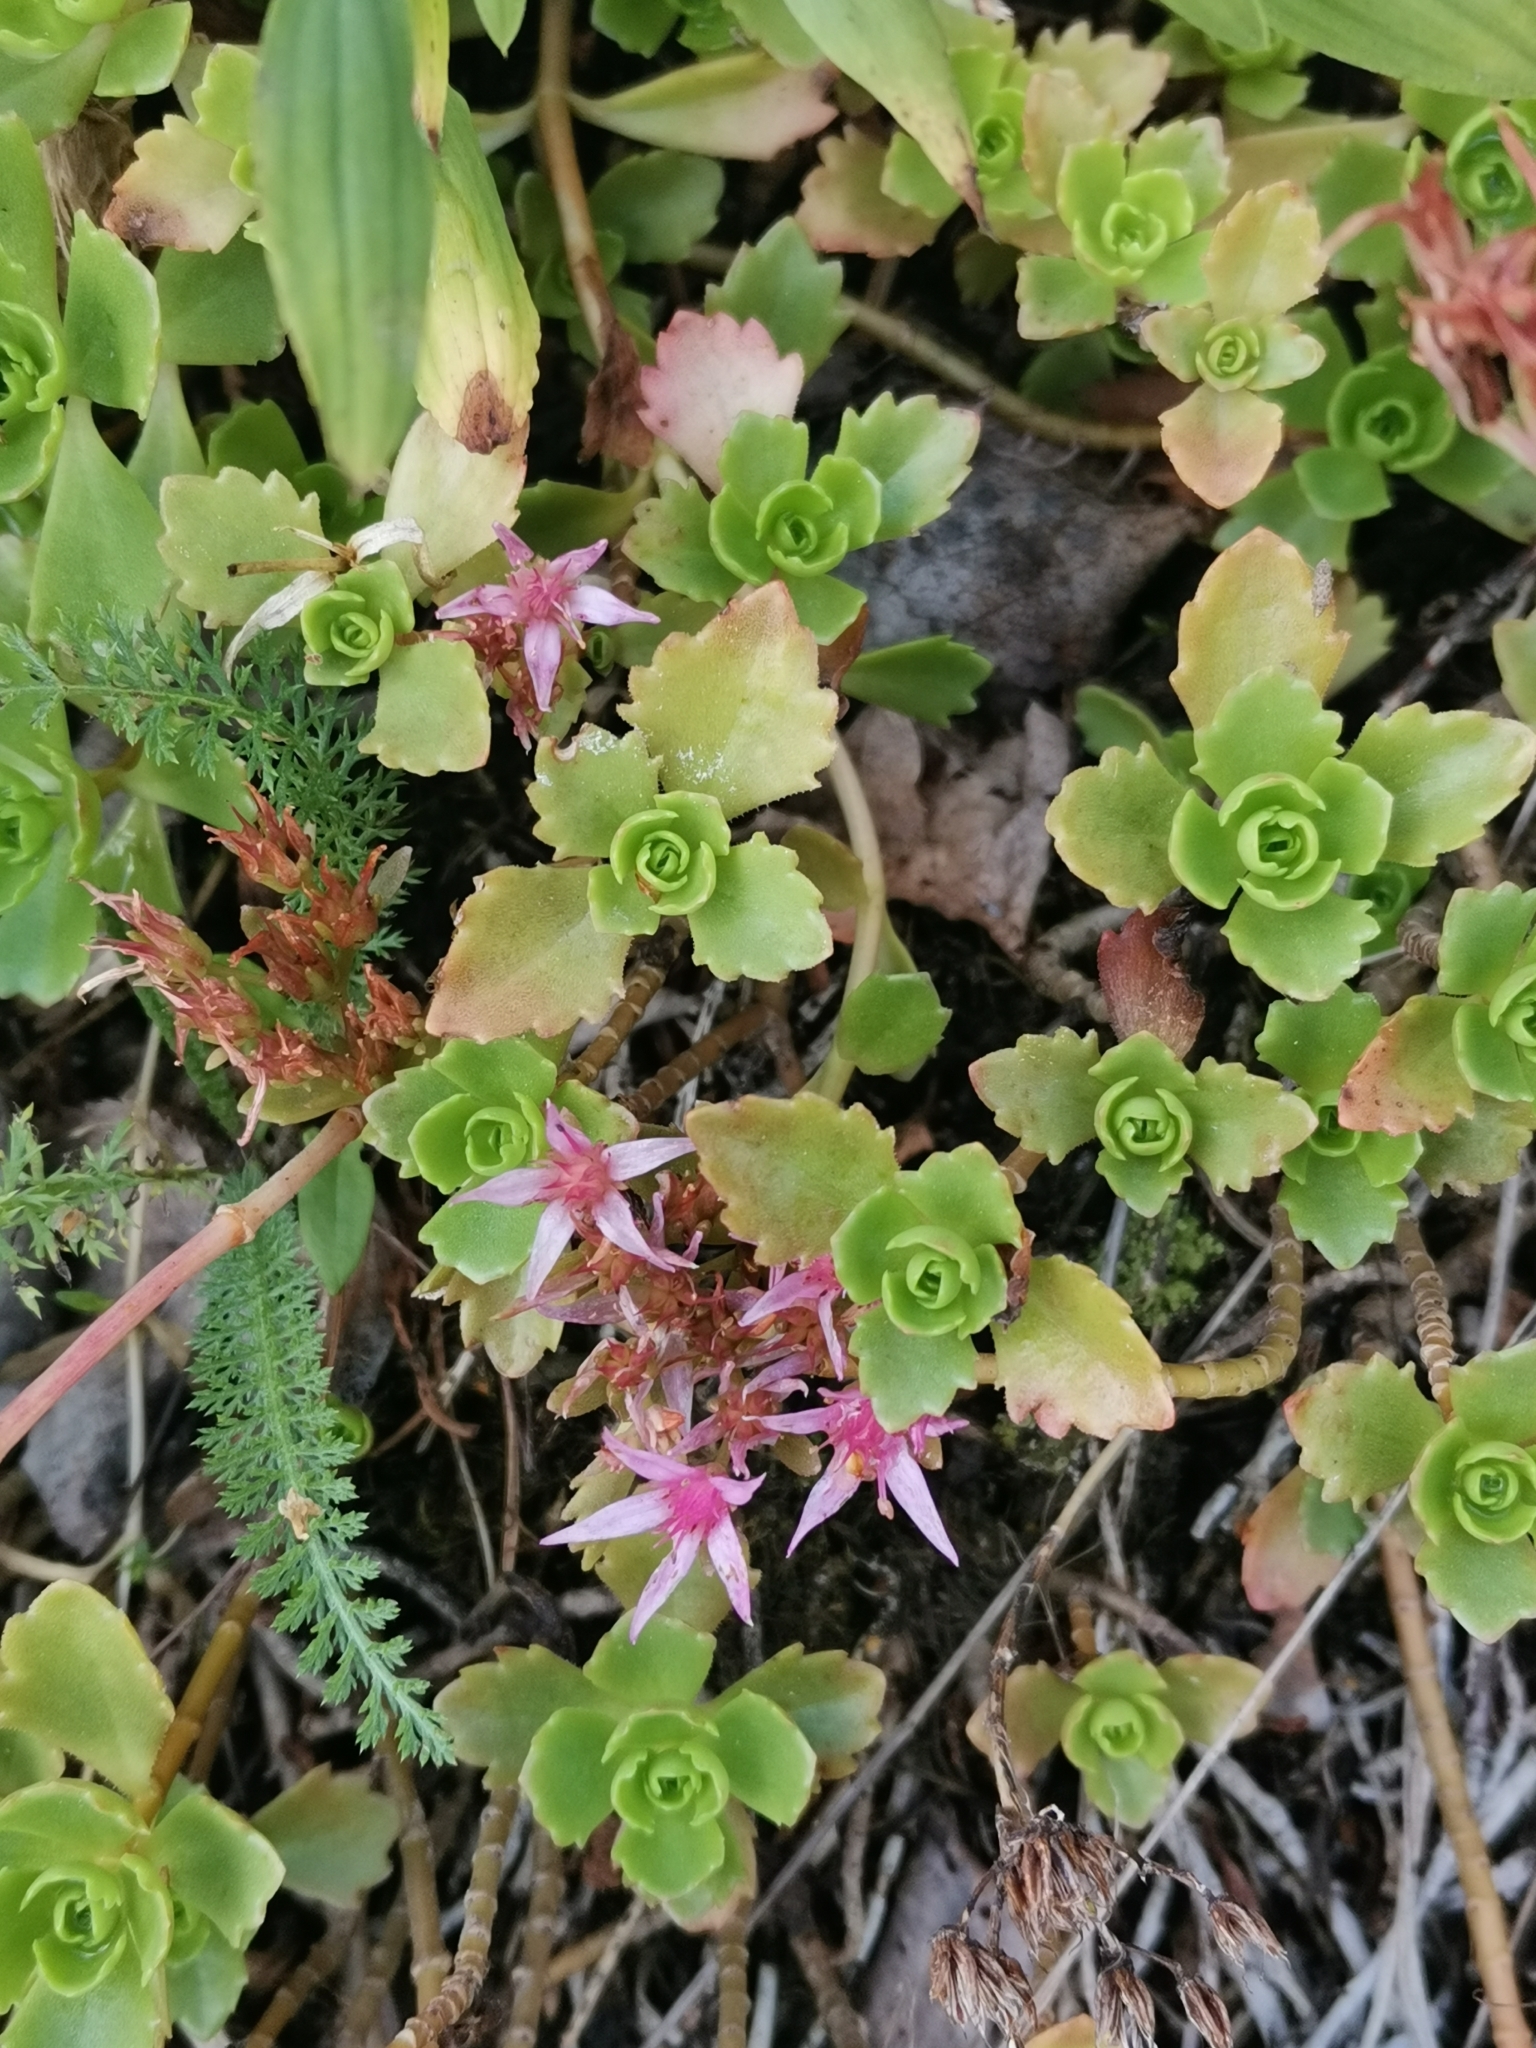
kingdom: Plantae
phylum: Tracheophyta
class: Magnoliopsida
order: Saxifragales
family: Crassulaceae
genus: Phedimus
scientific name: Phedimus spurius
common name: Caucasian stonecrop
